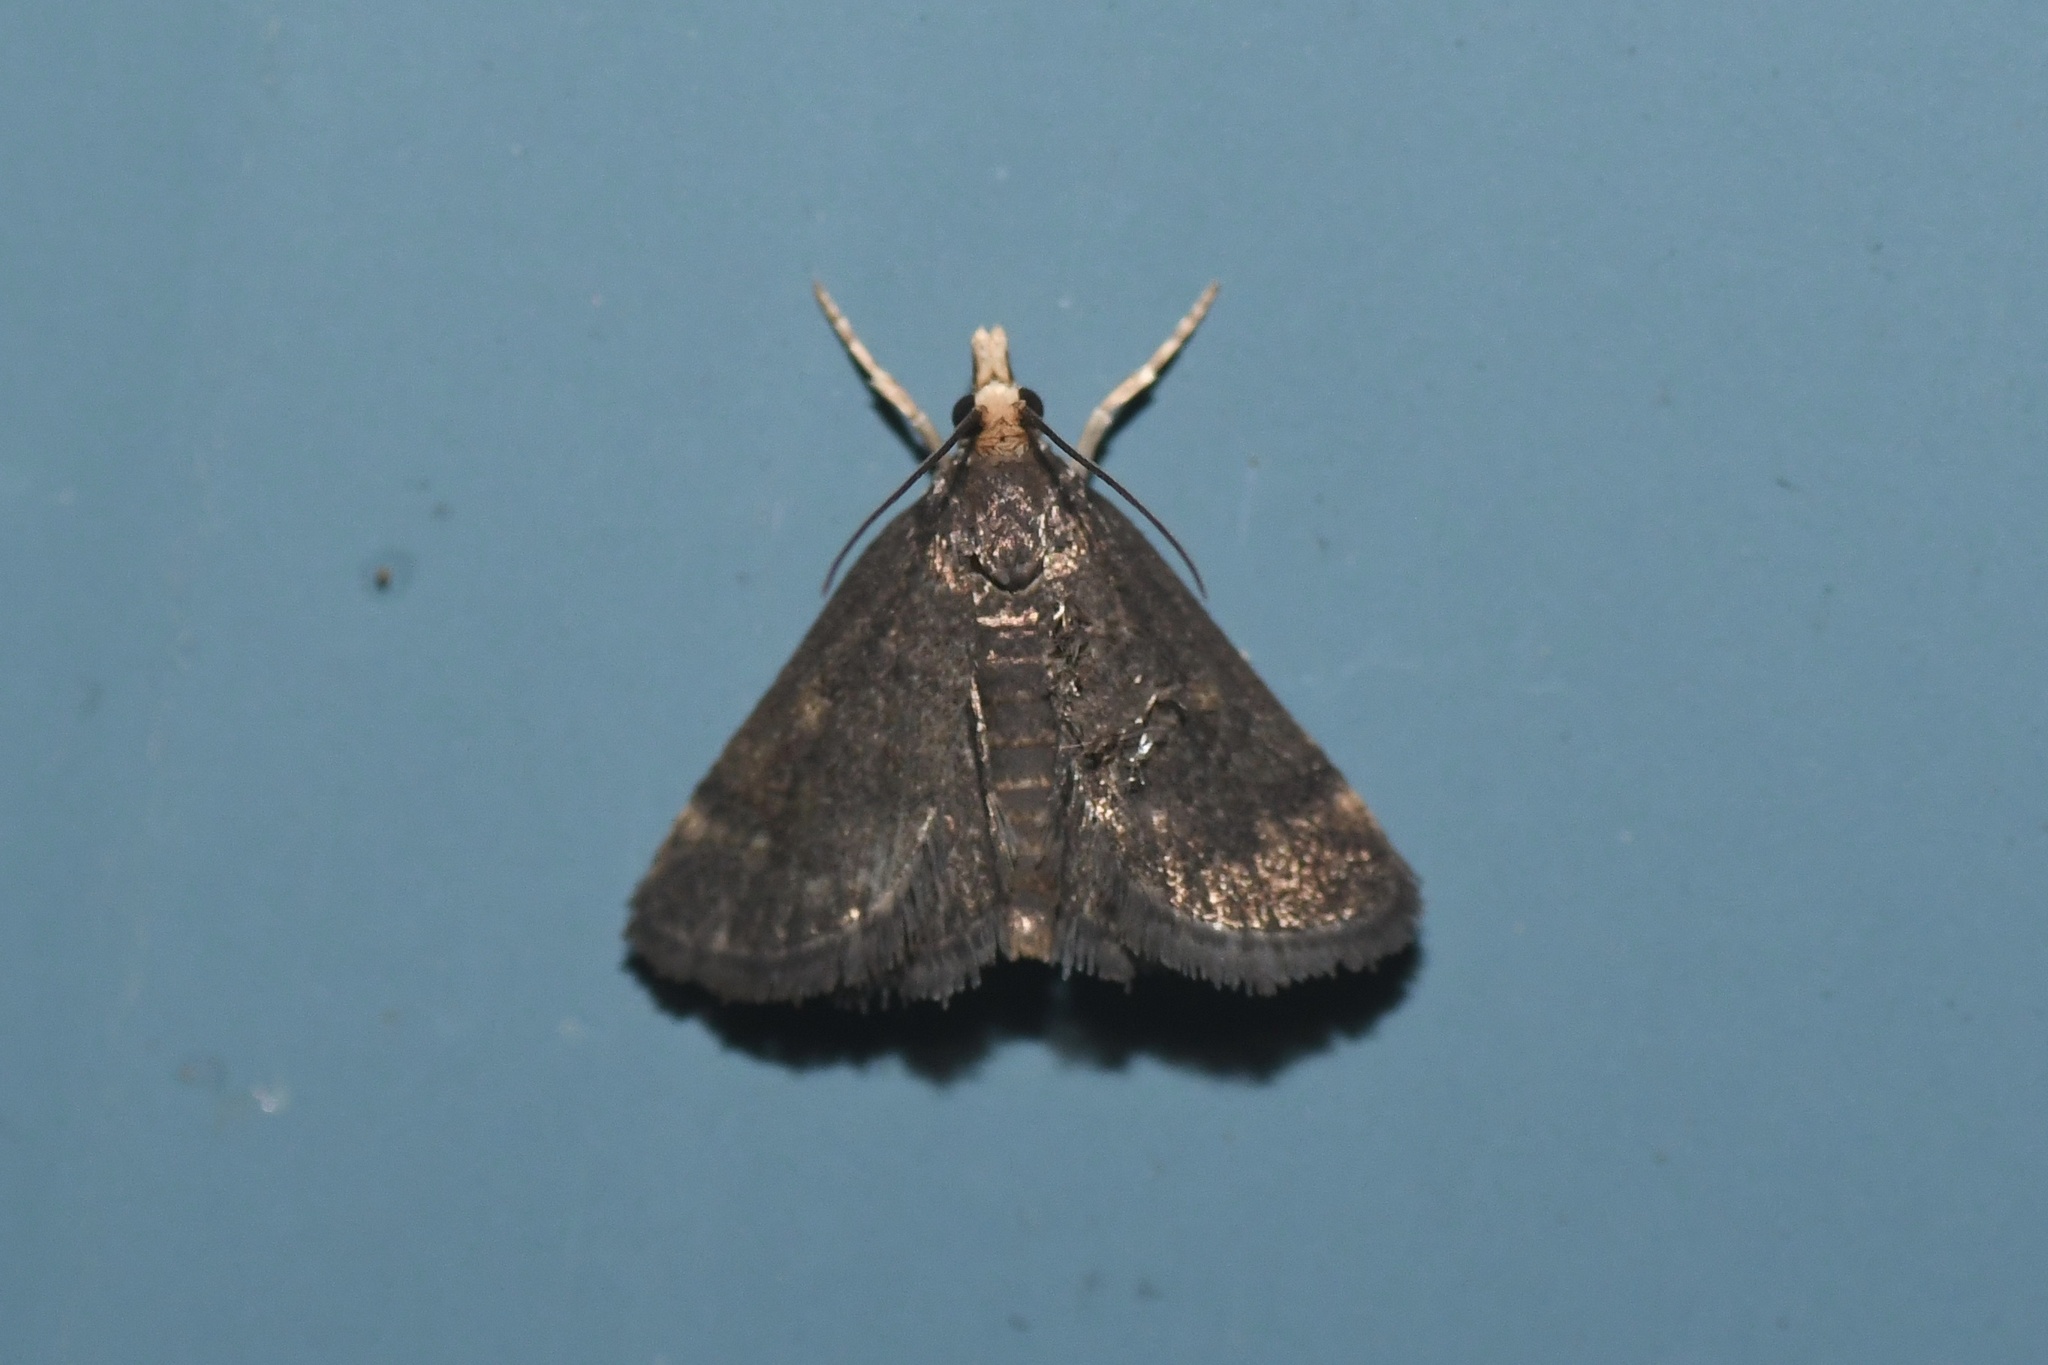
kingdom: Animalia
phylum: Arthropoda
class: Insecta
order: Lepidoptera
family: Crambidae
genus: Pyrausta
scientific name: Pyrausta merrickalis
